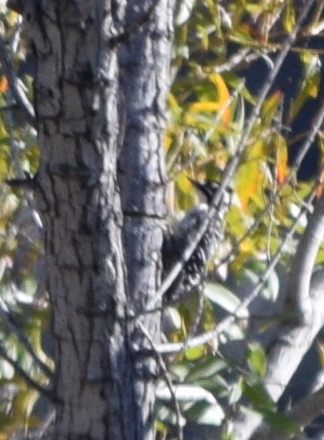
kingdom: Animalia
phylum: Chordata
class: Aves
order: Piciformes
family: Picidae
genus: Dryobates
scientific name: Dryobates nuttallii
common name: Nuttall's woodpecker
